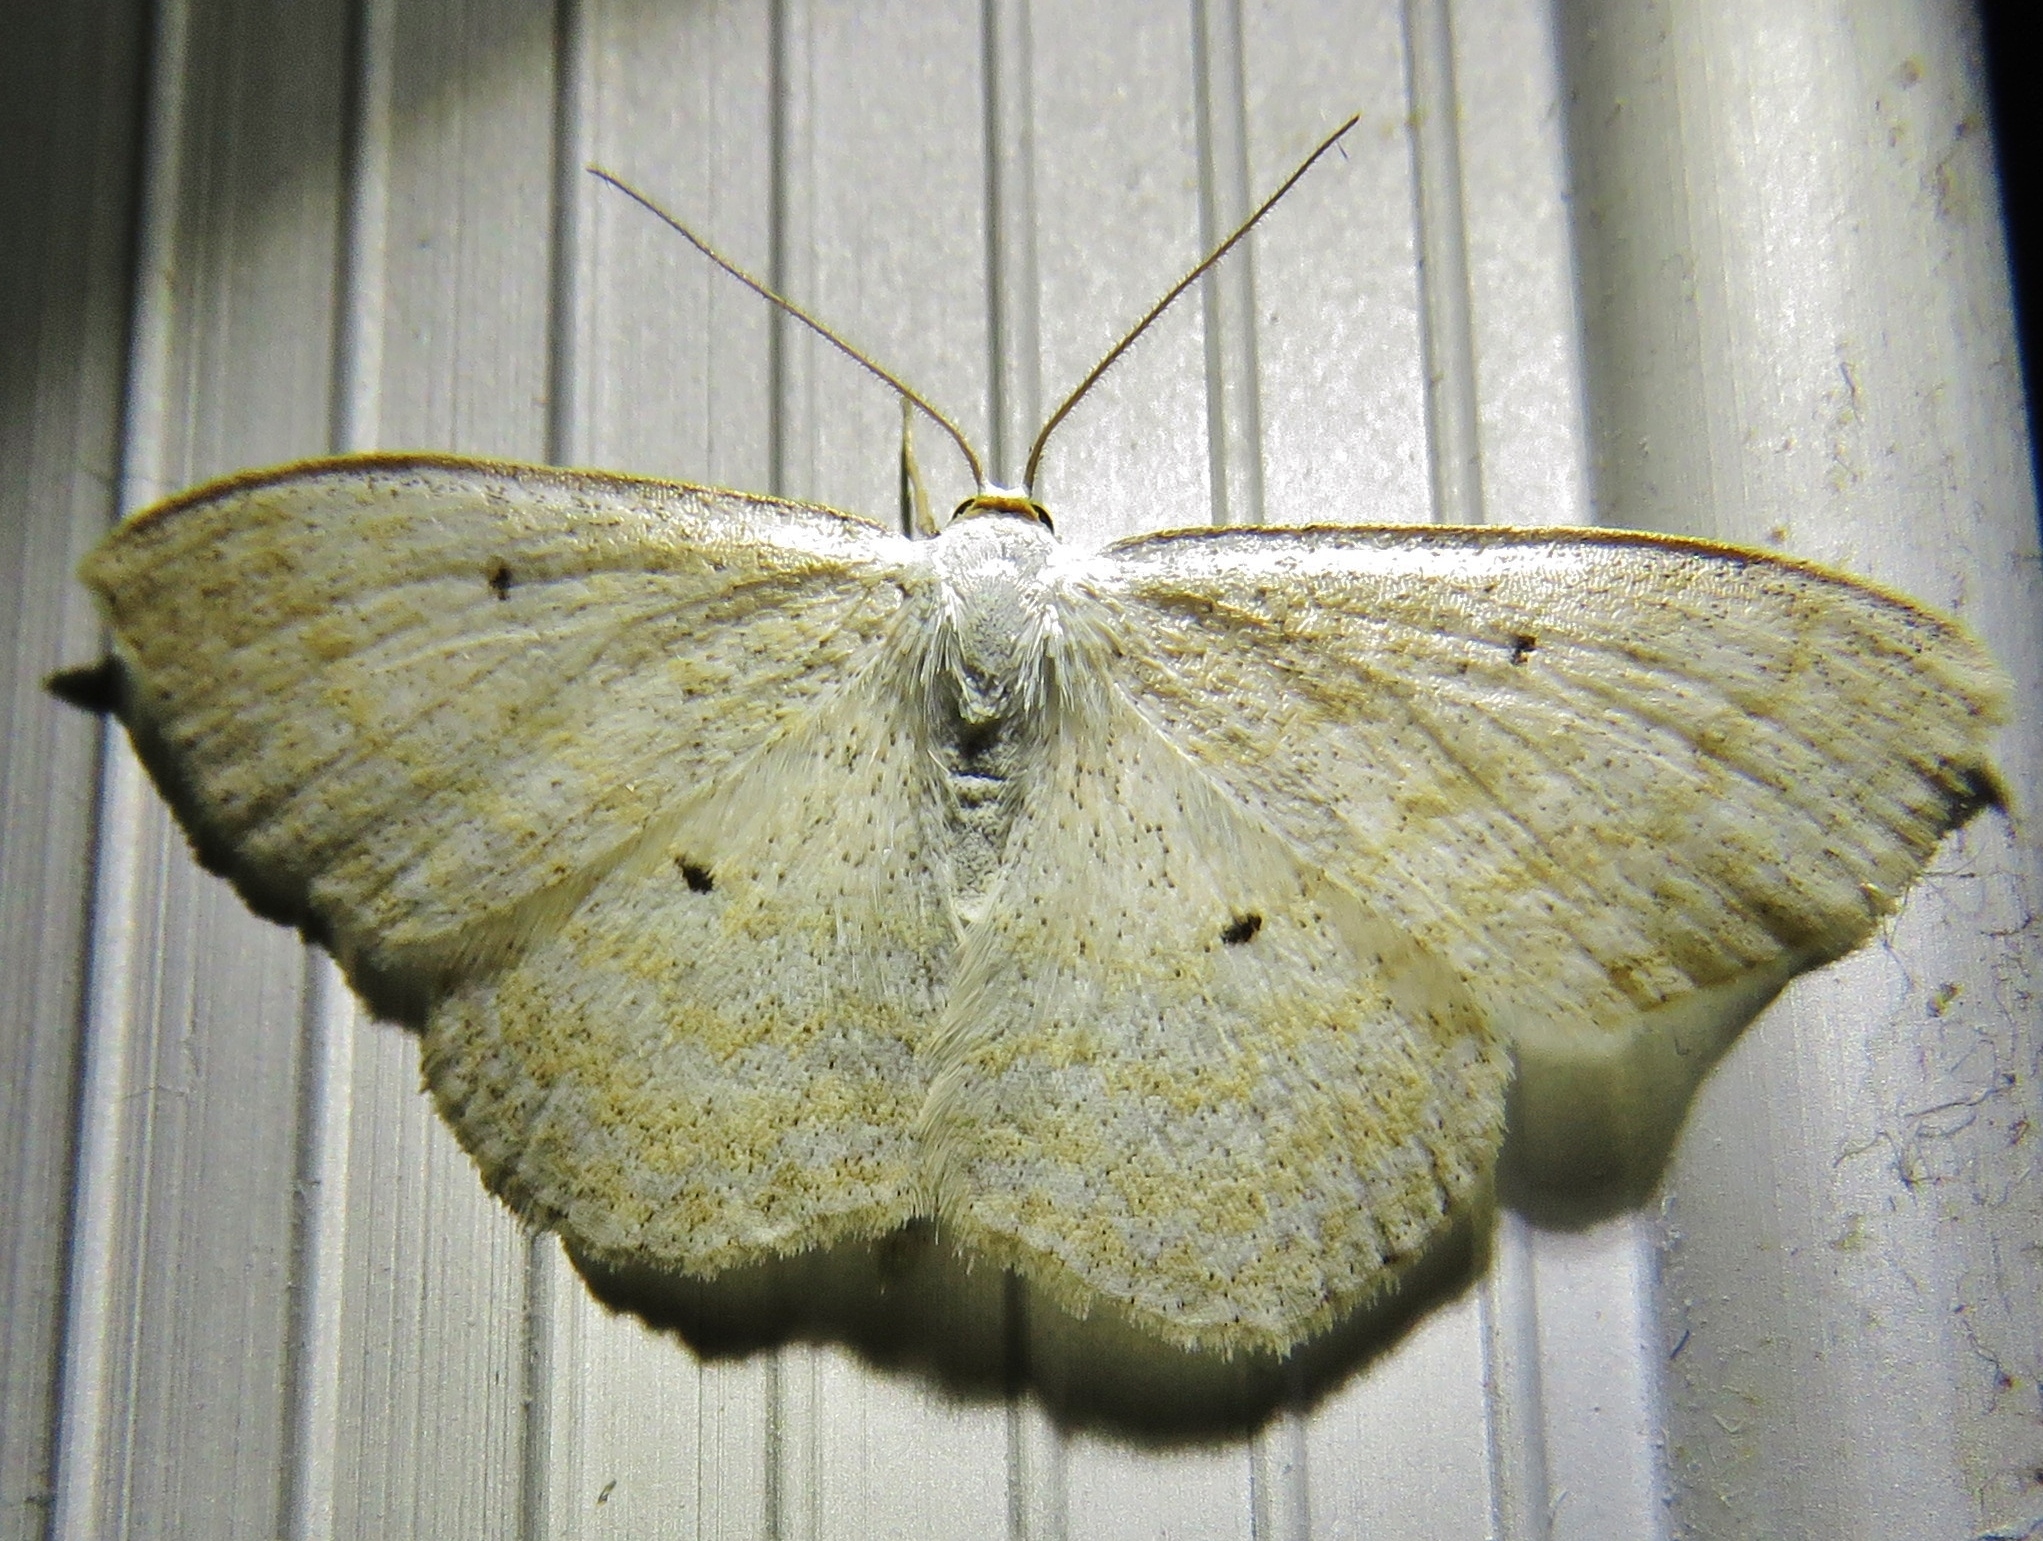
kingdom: Animalia
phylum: Arthropoda
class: Insecta
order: Lepidoptera
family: Geometridae
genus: Scopula
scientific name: Scopula immutata
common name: Lesser cream wave
